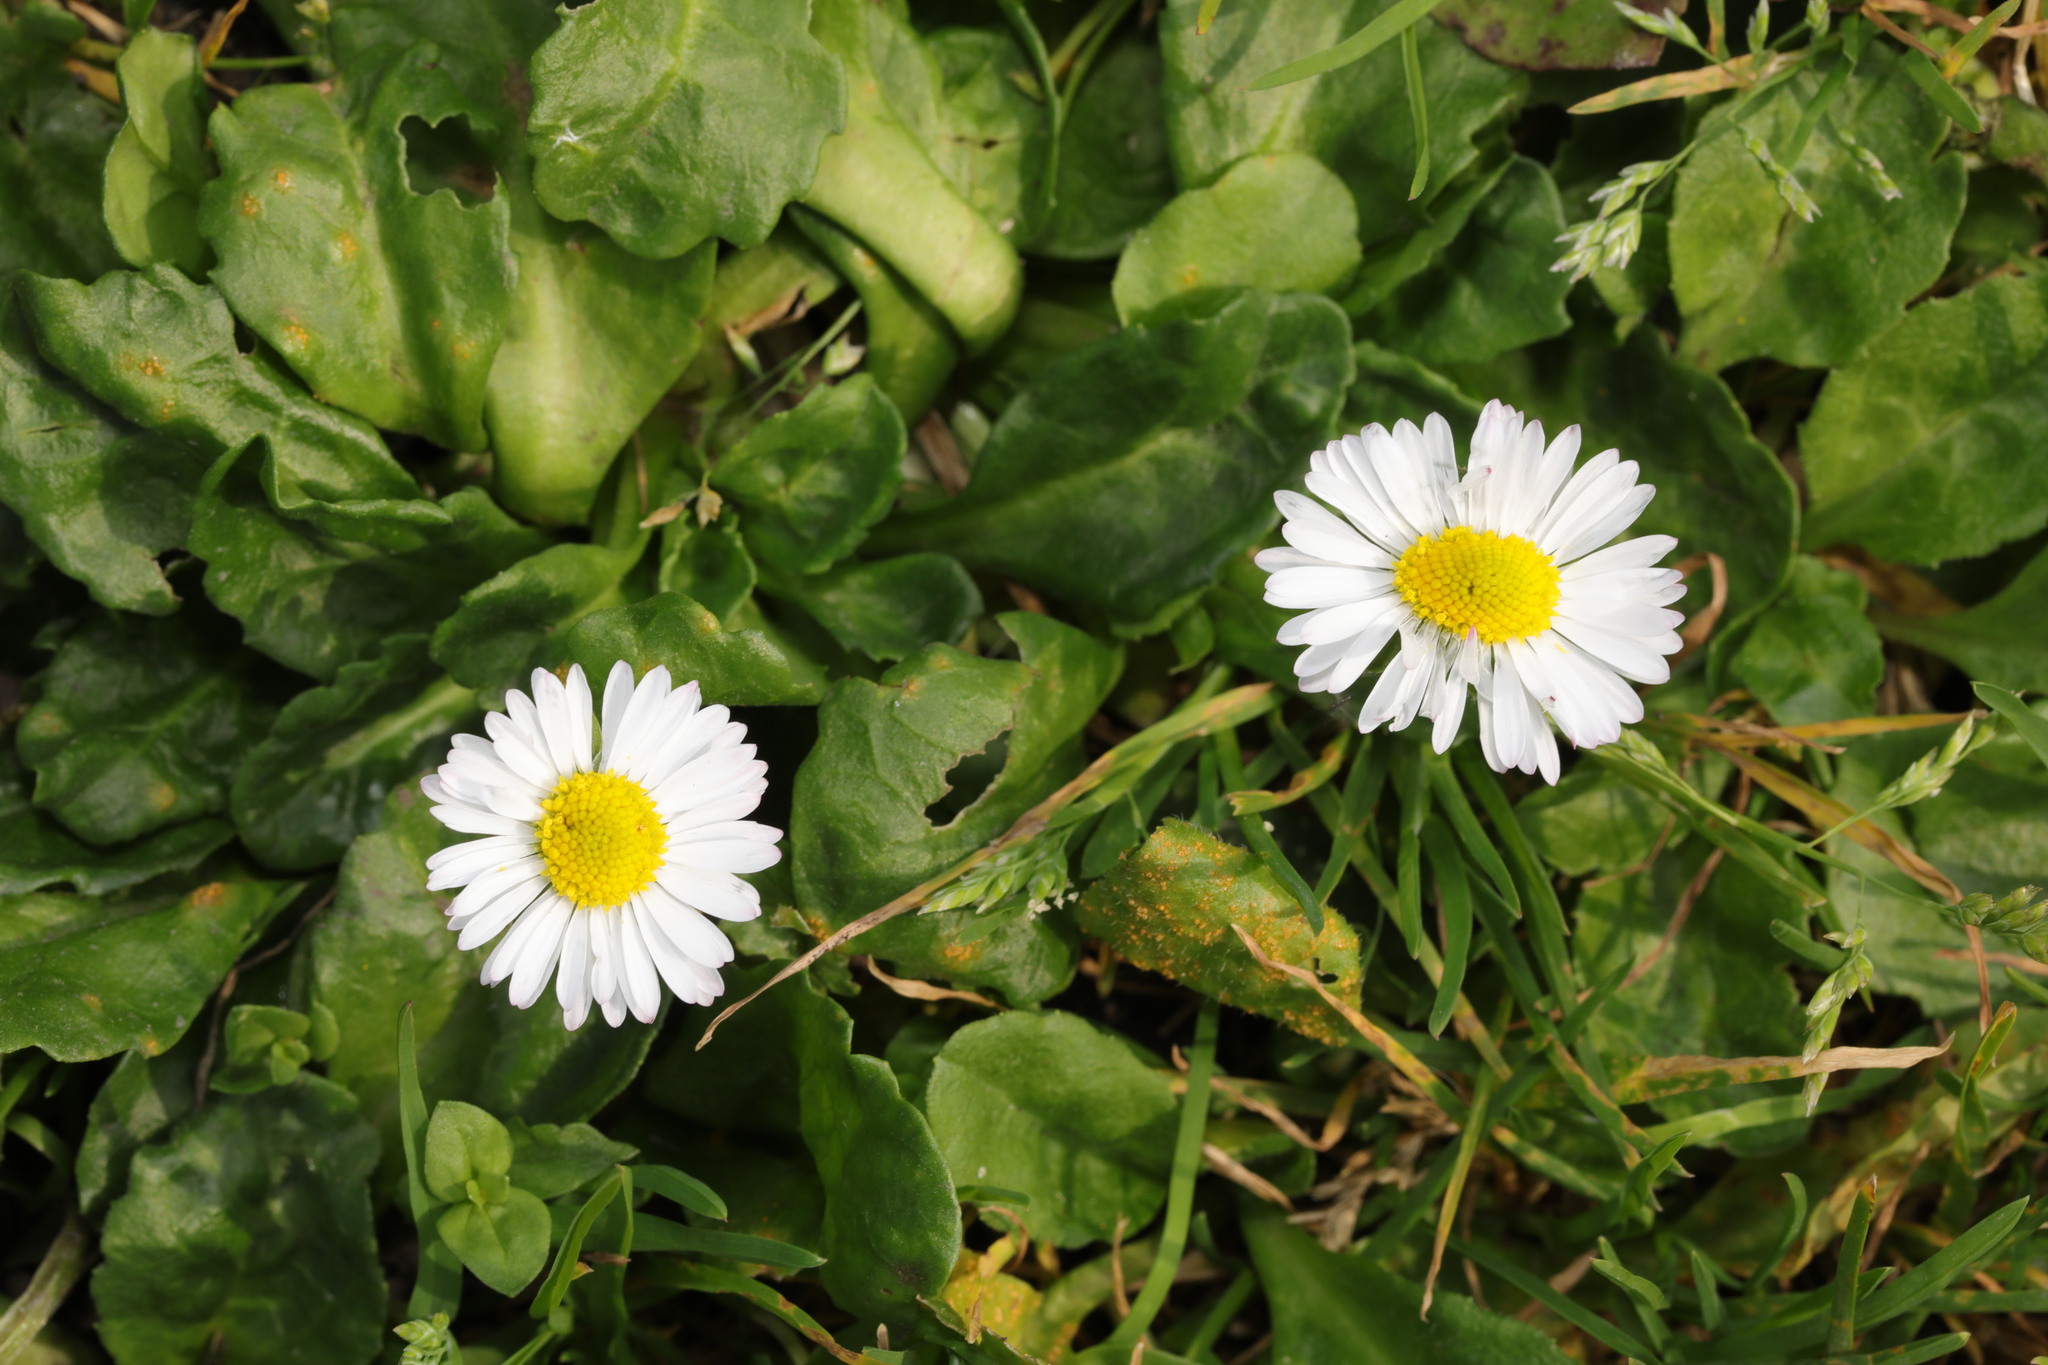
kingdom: Plantae
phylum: Tracheophyta
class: Magnoliopsida
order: Asterales
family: Asteraceae
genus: Bellis
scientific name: Bellis perennis
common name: Lawndaisy
